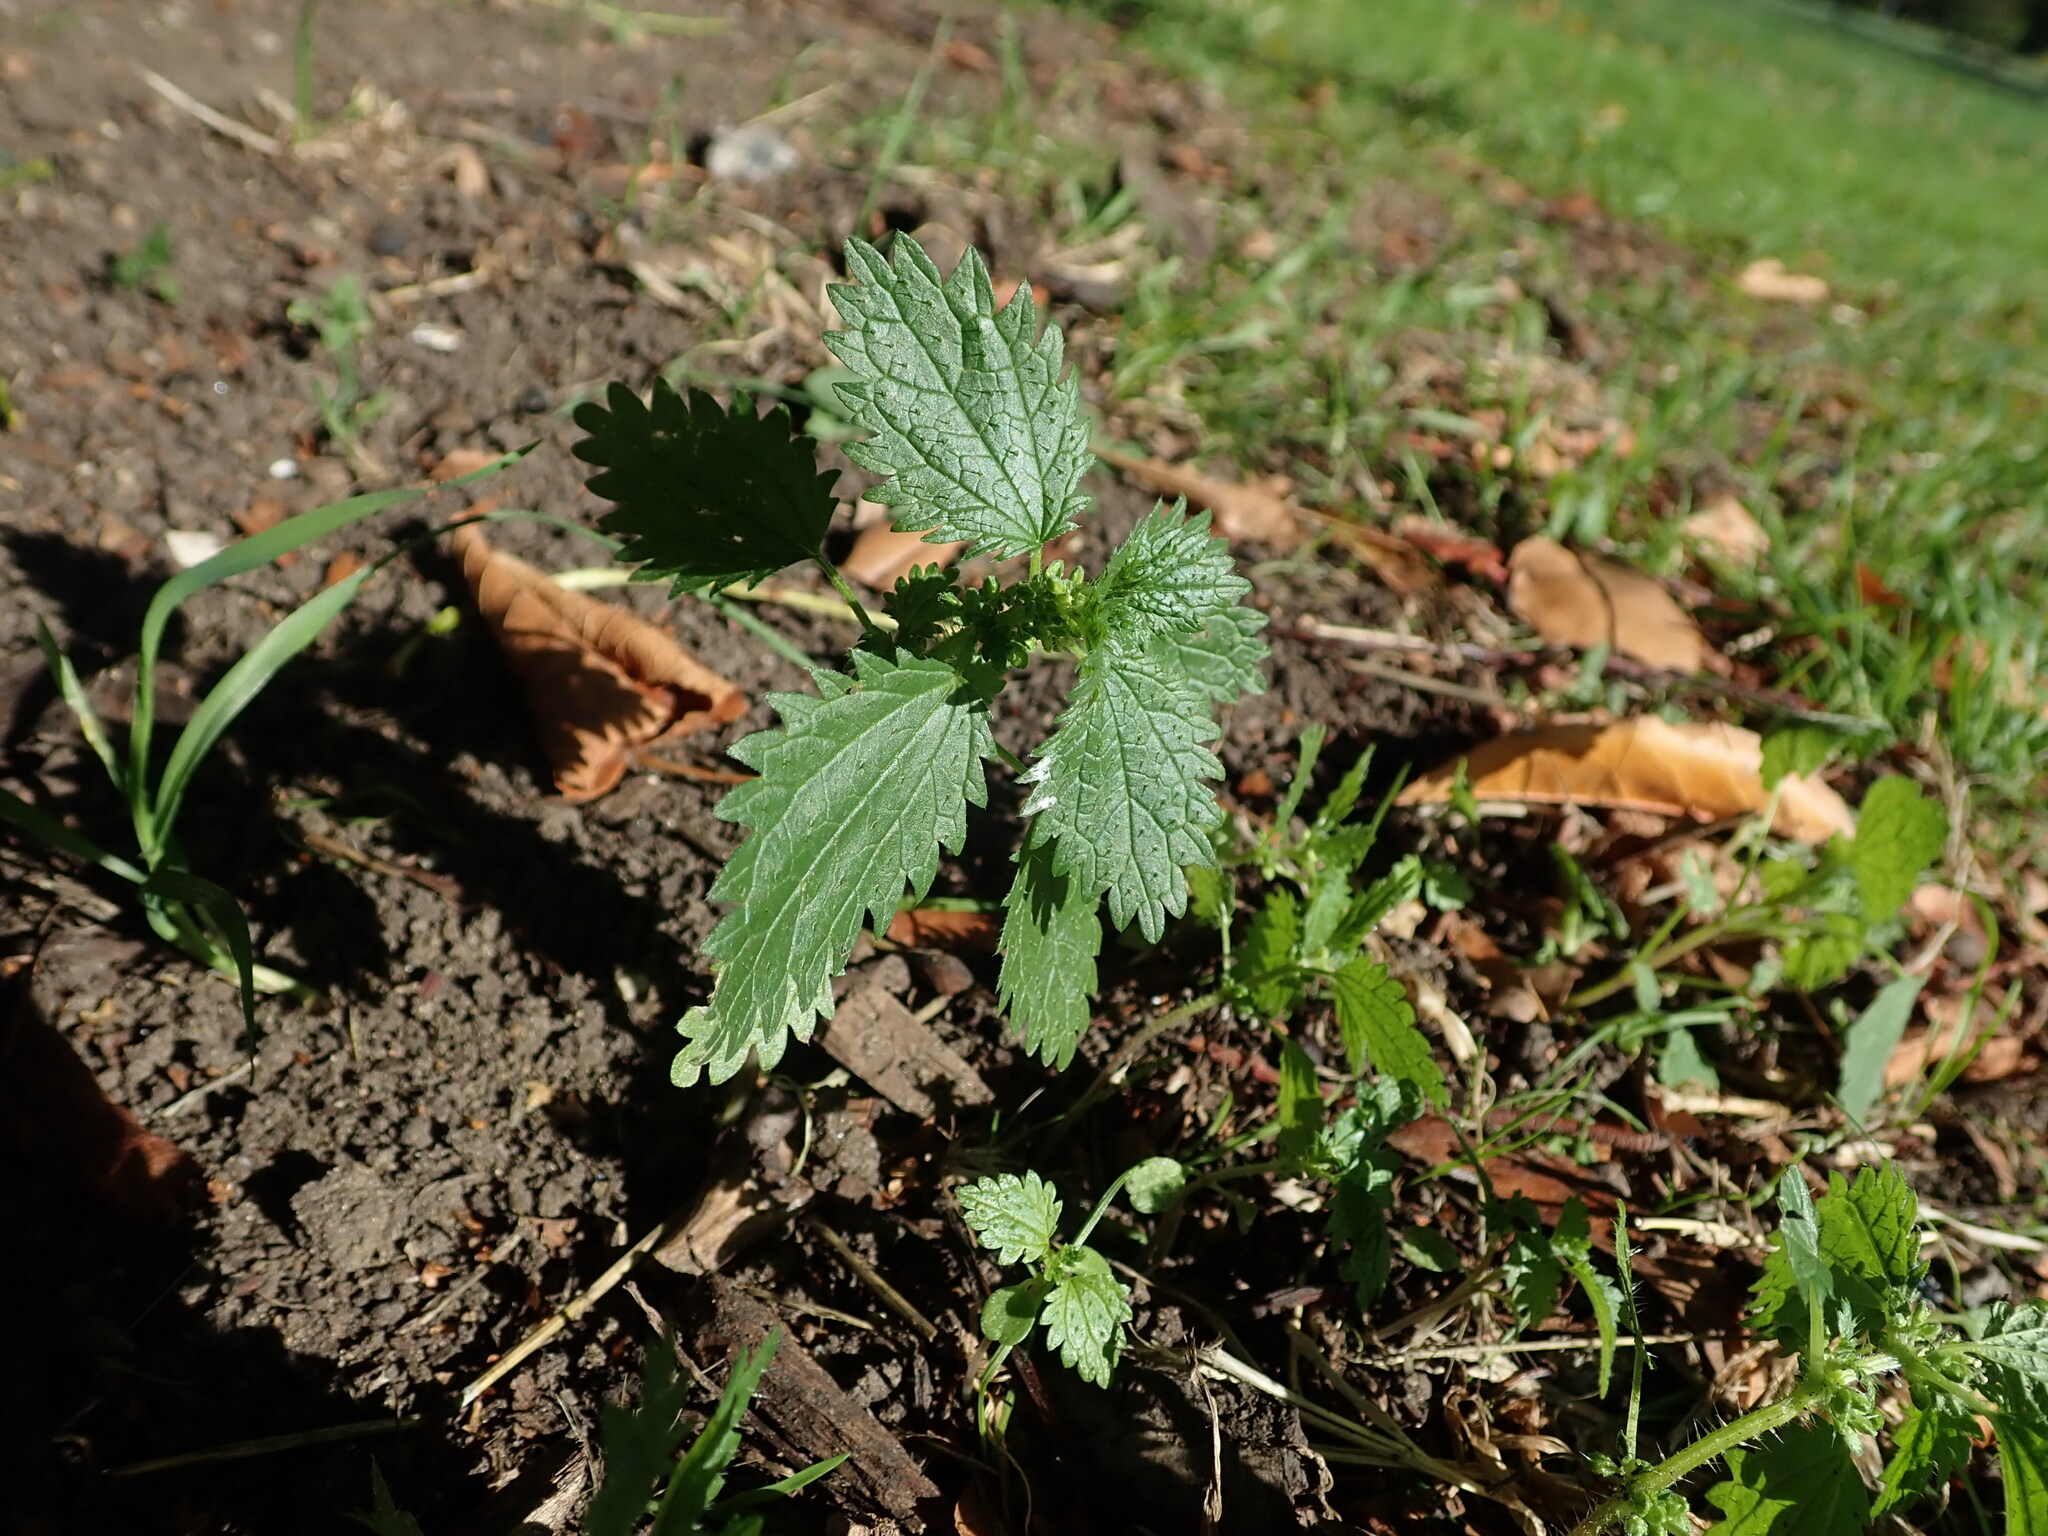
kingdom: Plantae
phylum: Tracheophyta
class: Magnoliopsida
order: Rosales
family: Urticaceae
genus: Urtica
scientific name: Urtica urens
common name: Dwarf nettle
